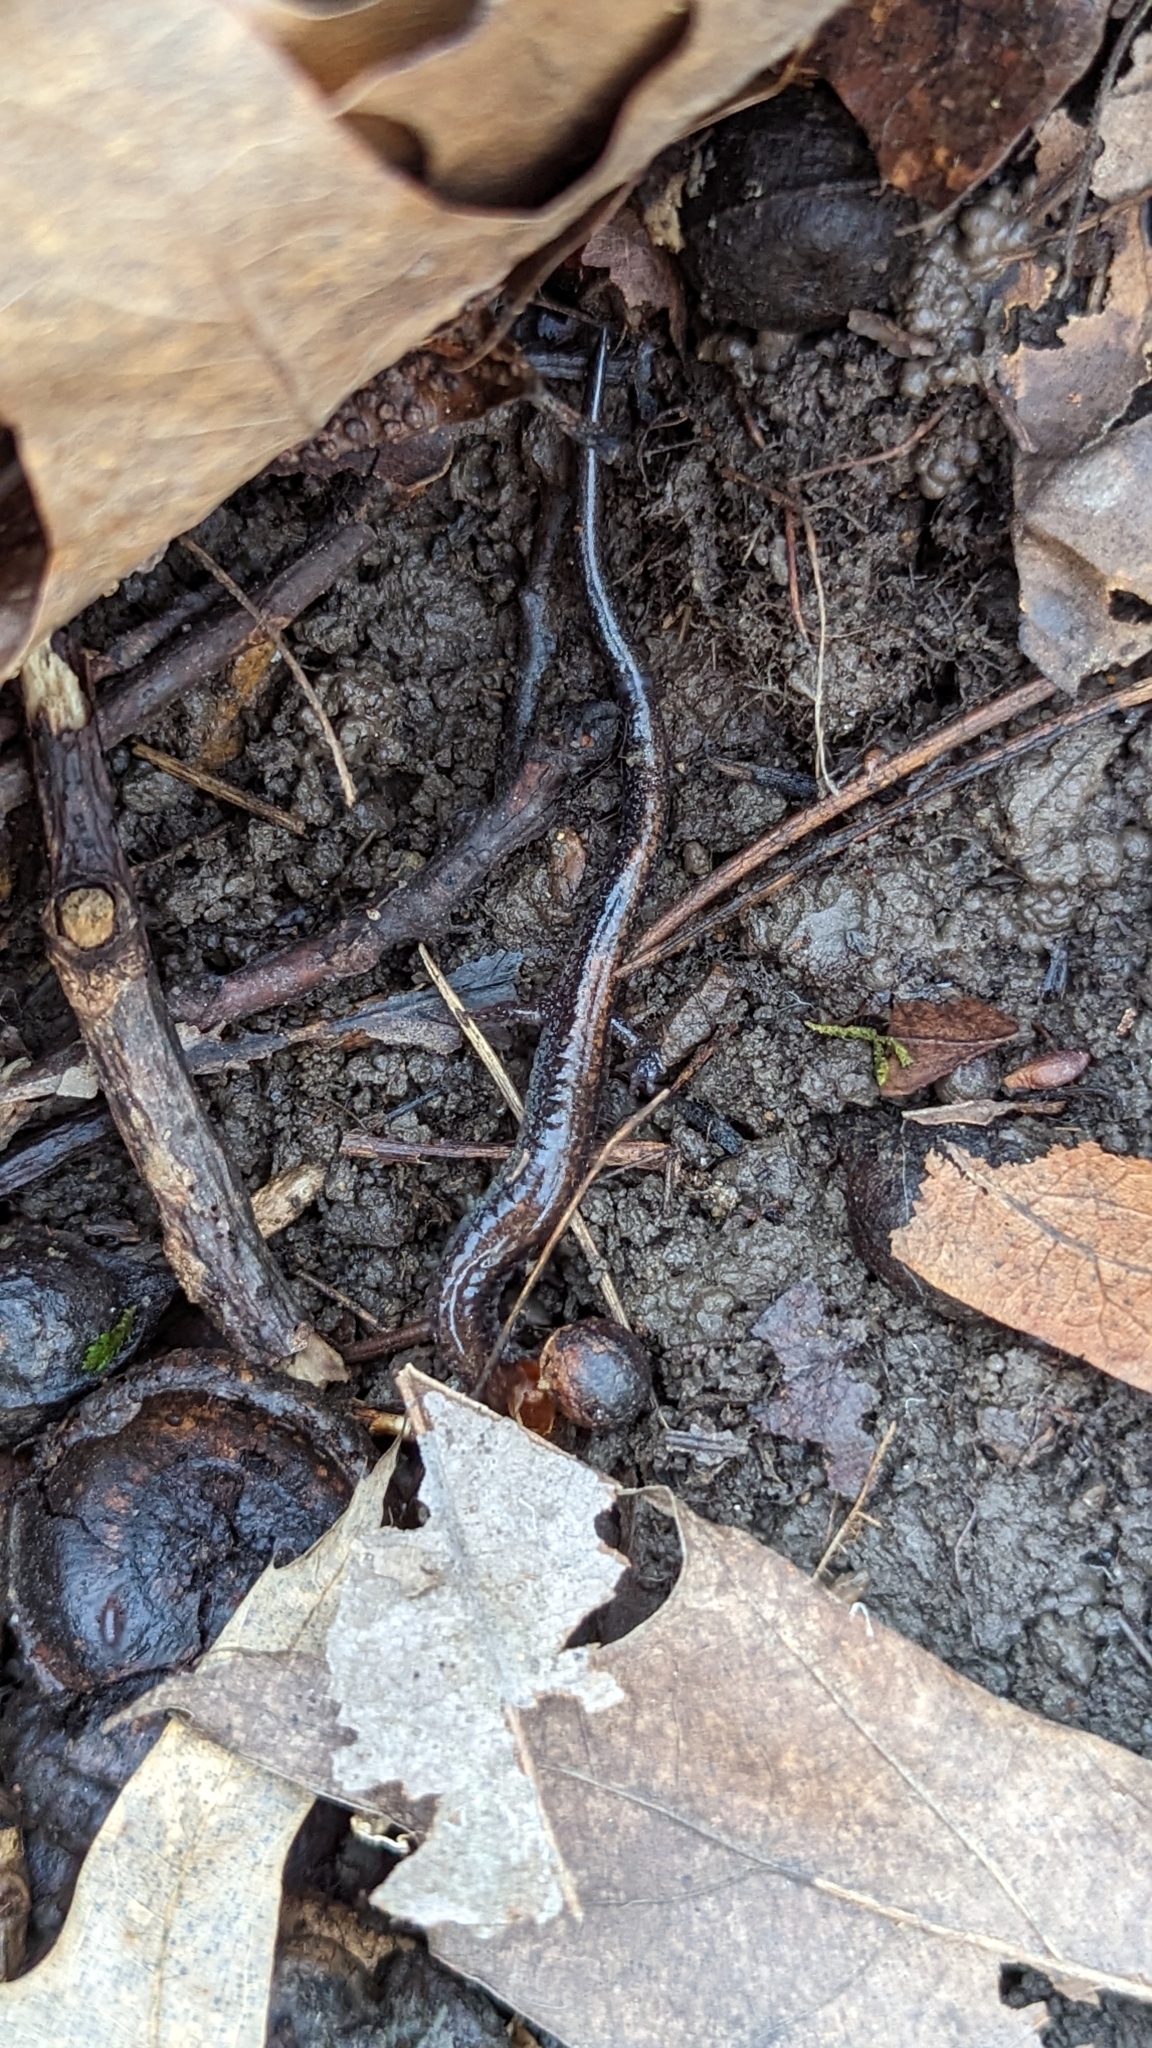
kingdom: Animalia
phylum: Chordata
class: Amphibia
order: Caudata
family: Plethodontidae
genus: Plethodon
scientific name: Plethodon cinereus
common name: Redback salamander
